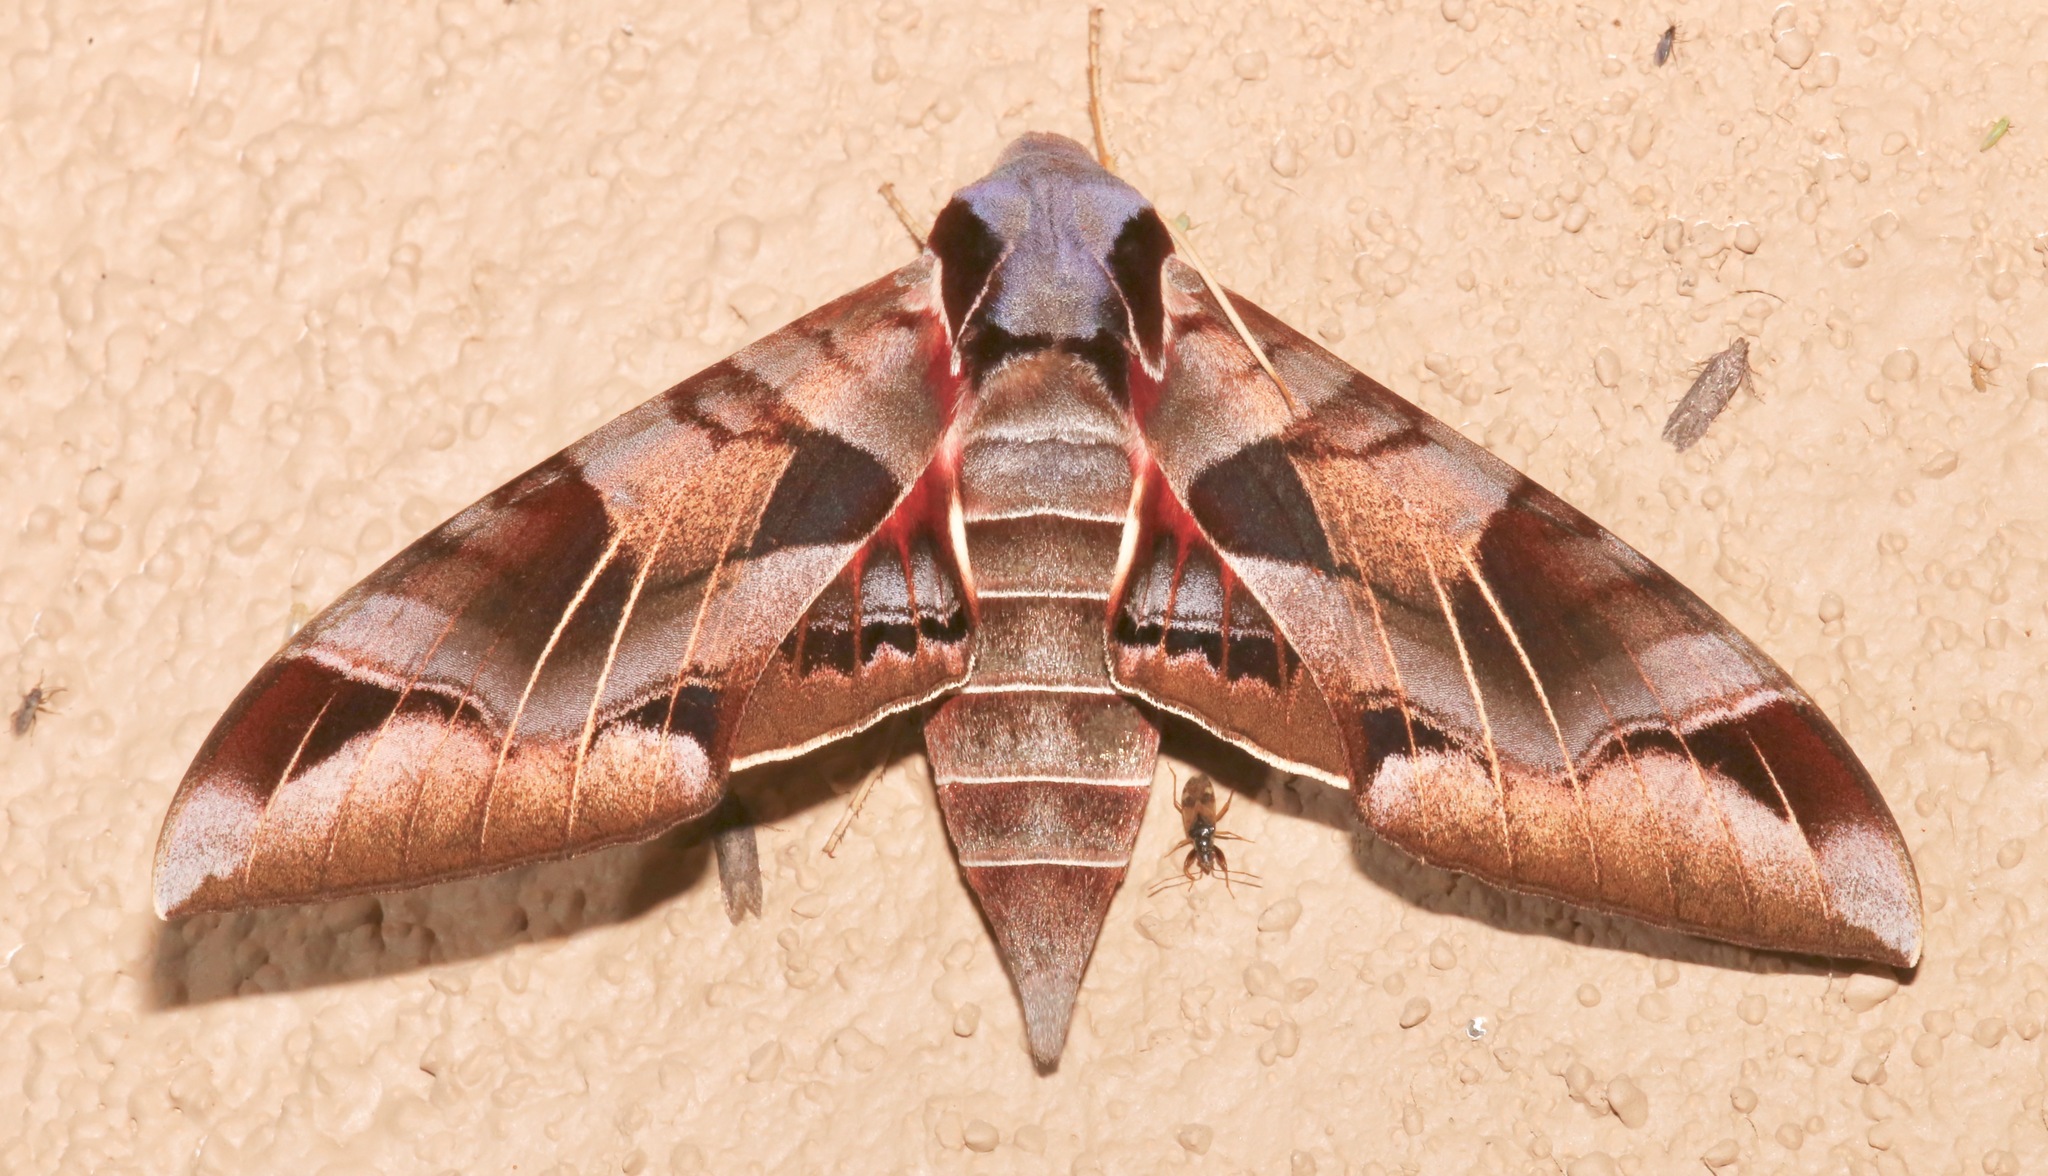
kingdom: Animalia
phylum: Arthropoda
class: Insecta
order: Lepidoptera
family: Sphingidae
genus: Eumorpha
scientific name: Eumorpha typhon
